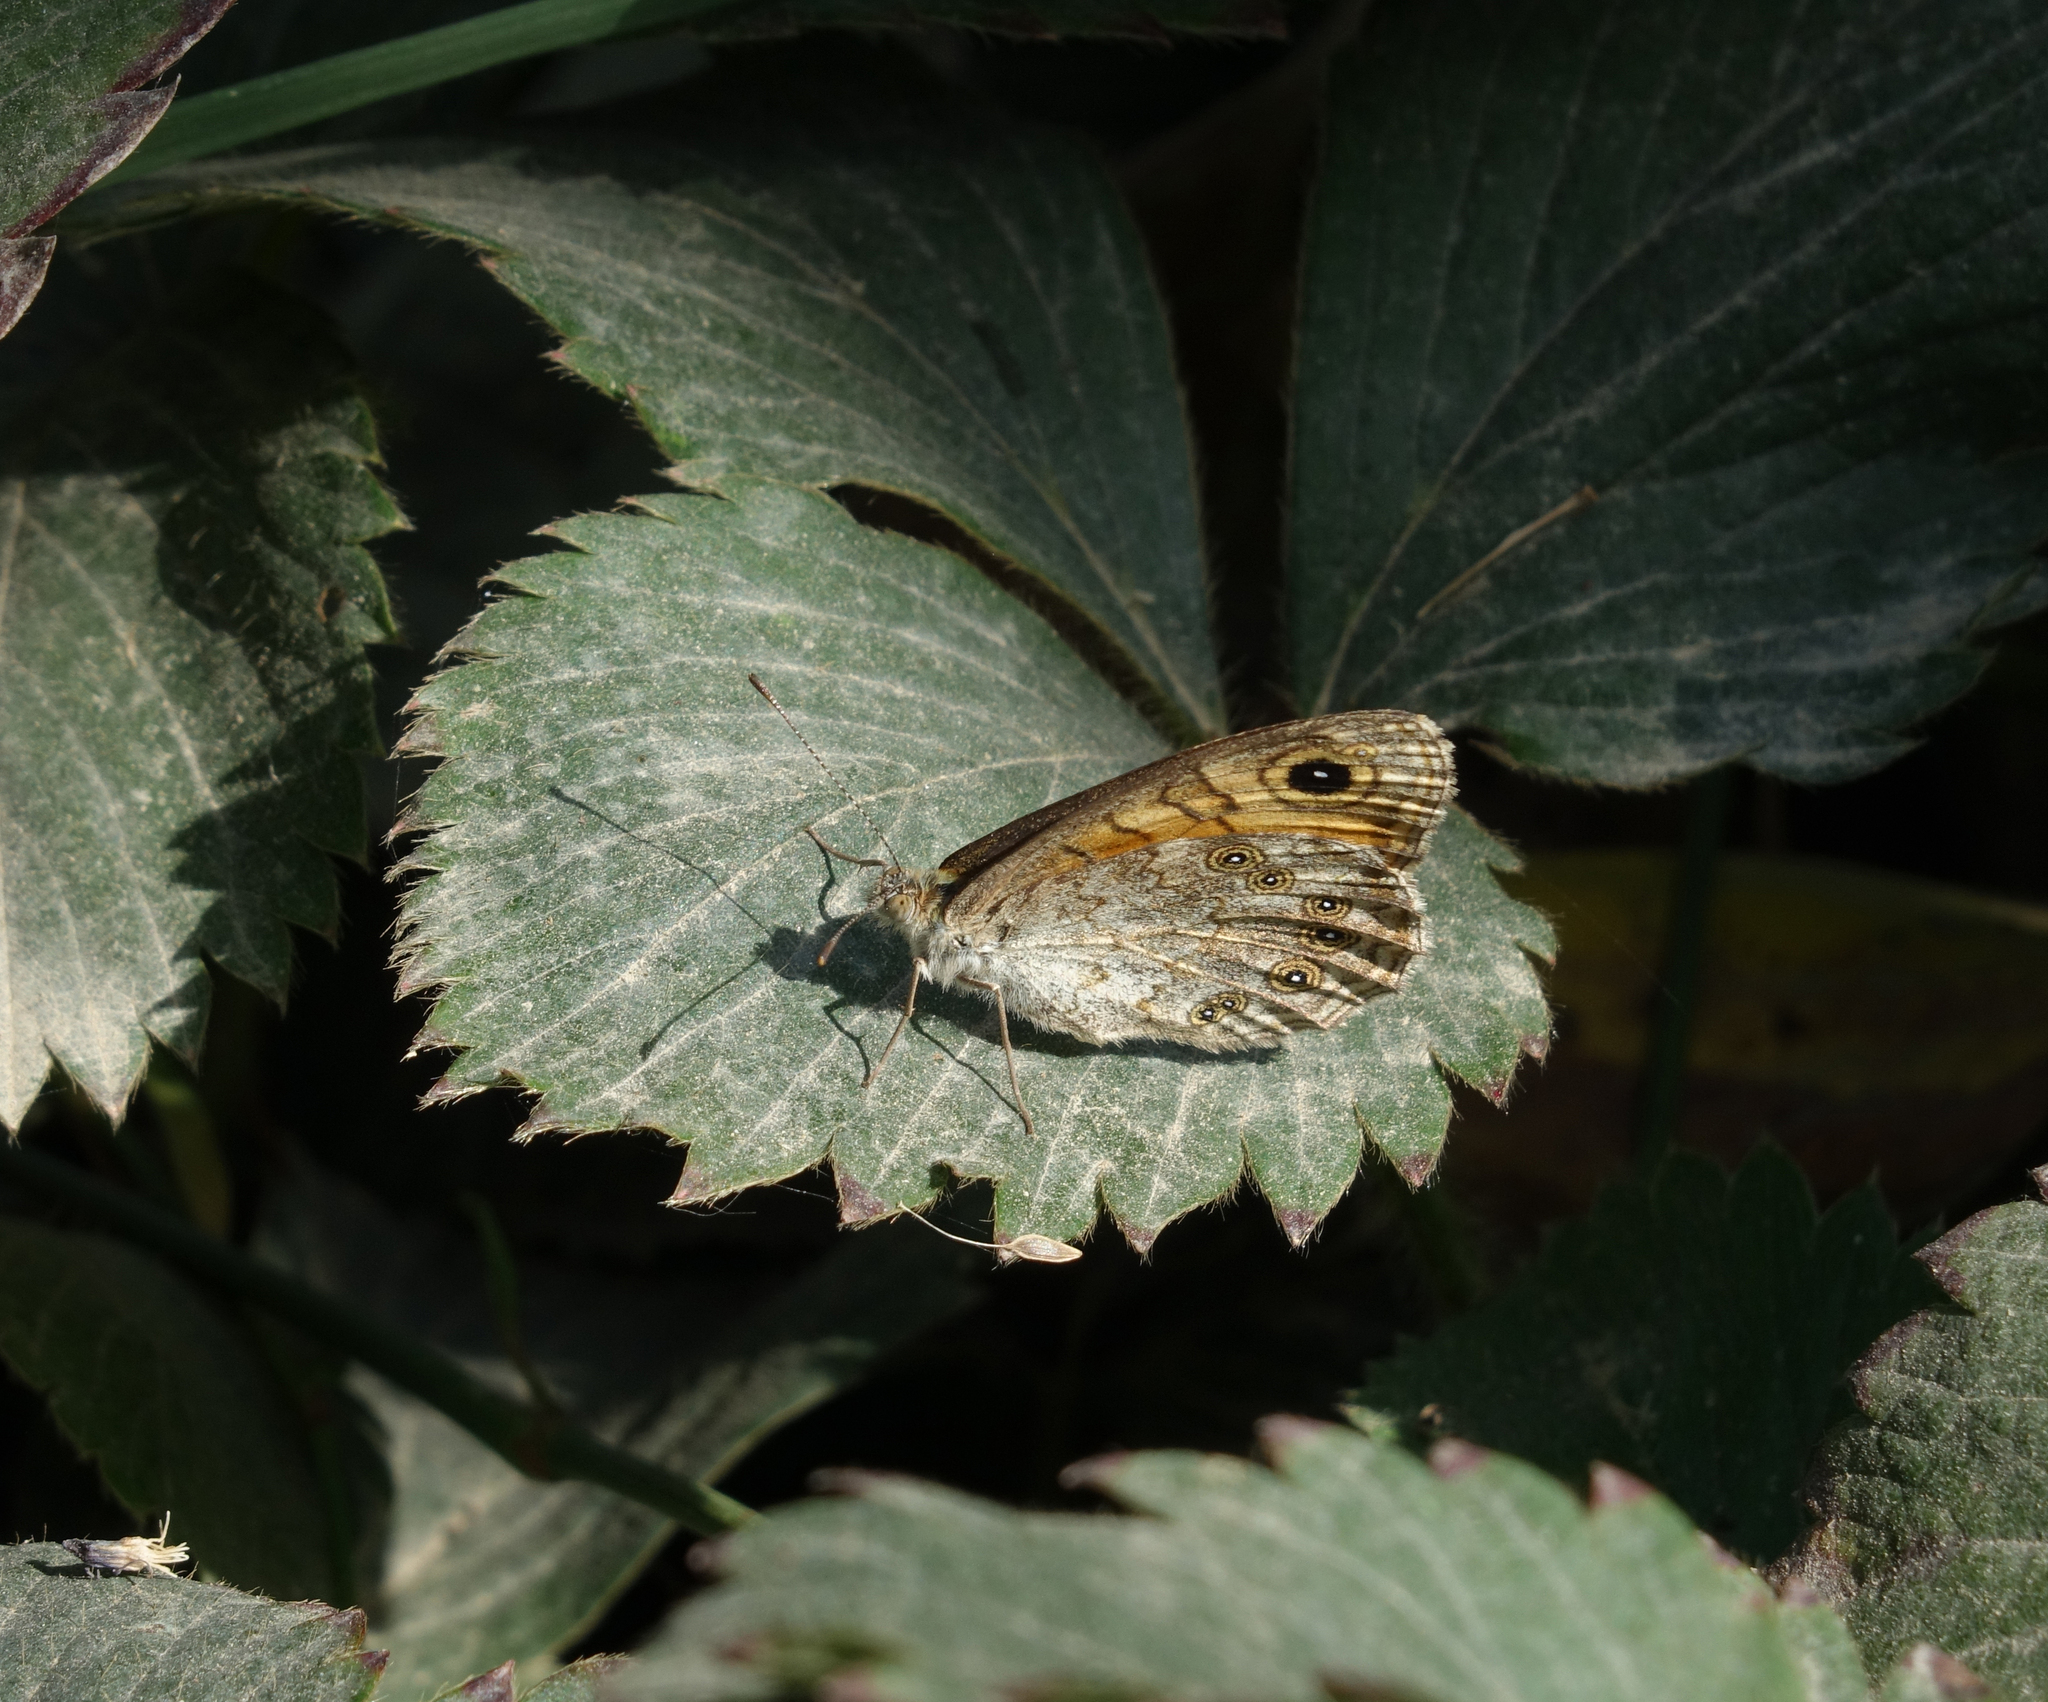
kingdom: Animalia
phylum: Arthropoda
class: Insecta
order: Lepidoptera
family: Nymphalidae
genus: Pararge
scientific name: Pararge Lasiommata megera
